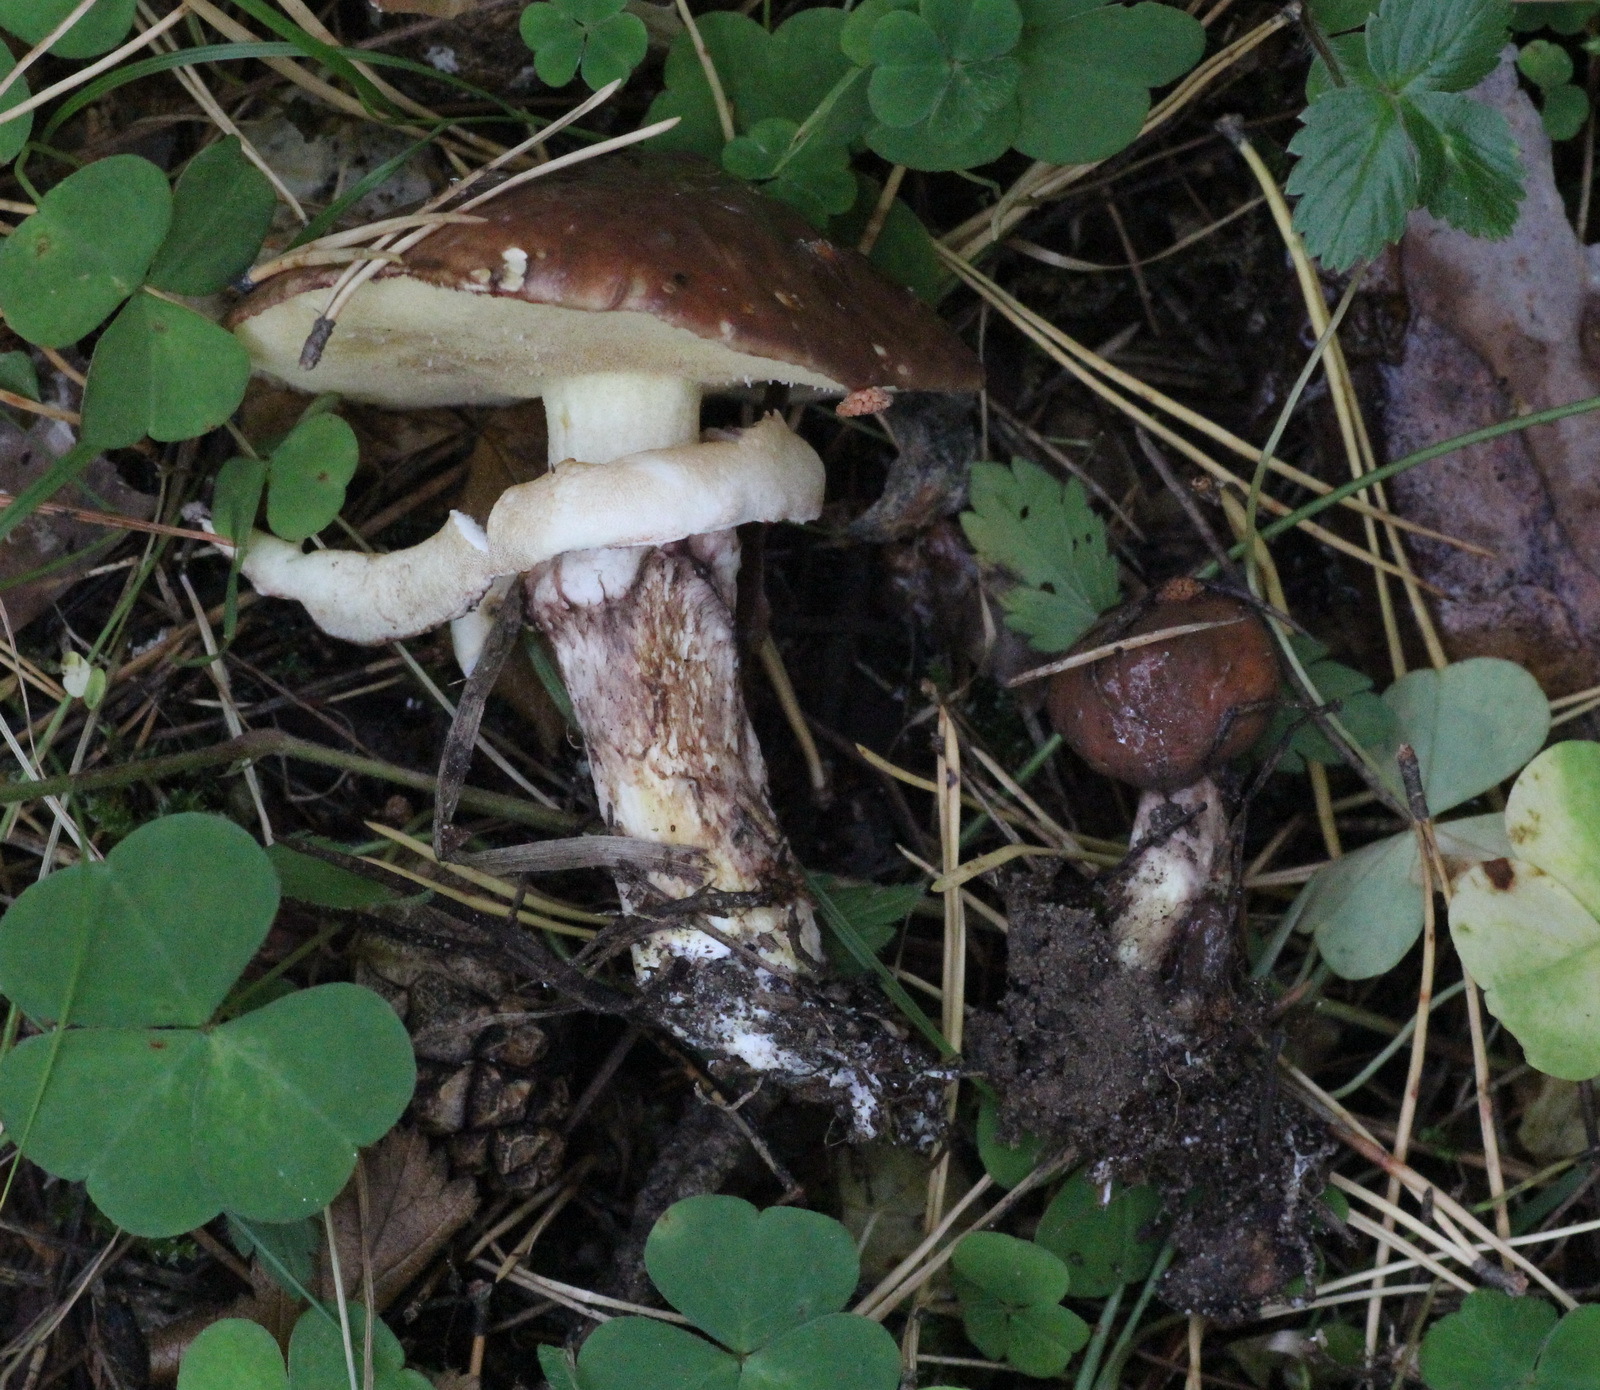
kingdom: Fungi
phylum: Basidiomycota
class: Agaricomycetes
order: Boletales
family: Suillaceae
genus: Suillus
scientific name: Suillus luteus
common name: Slippery jack
